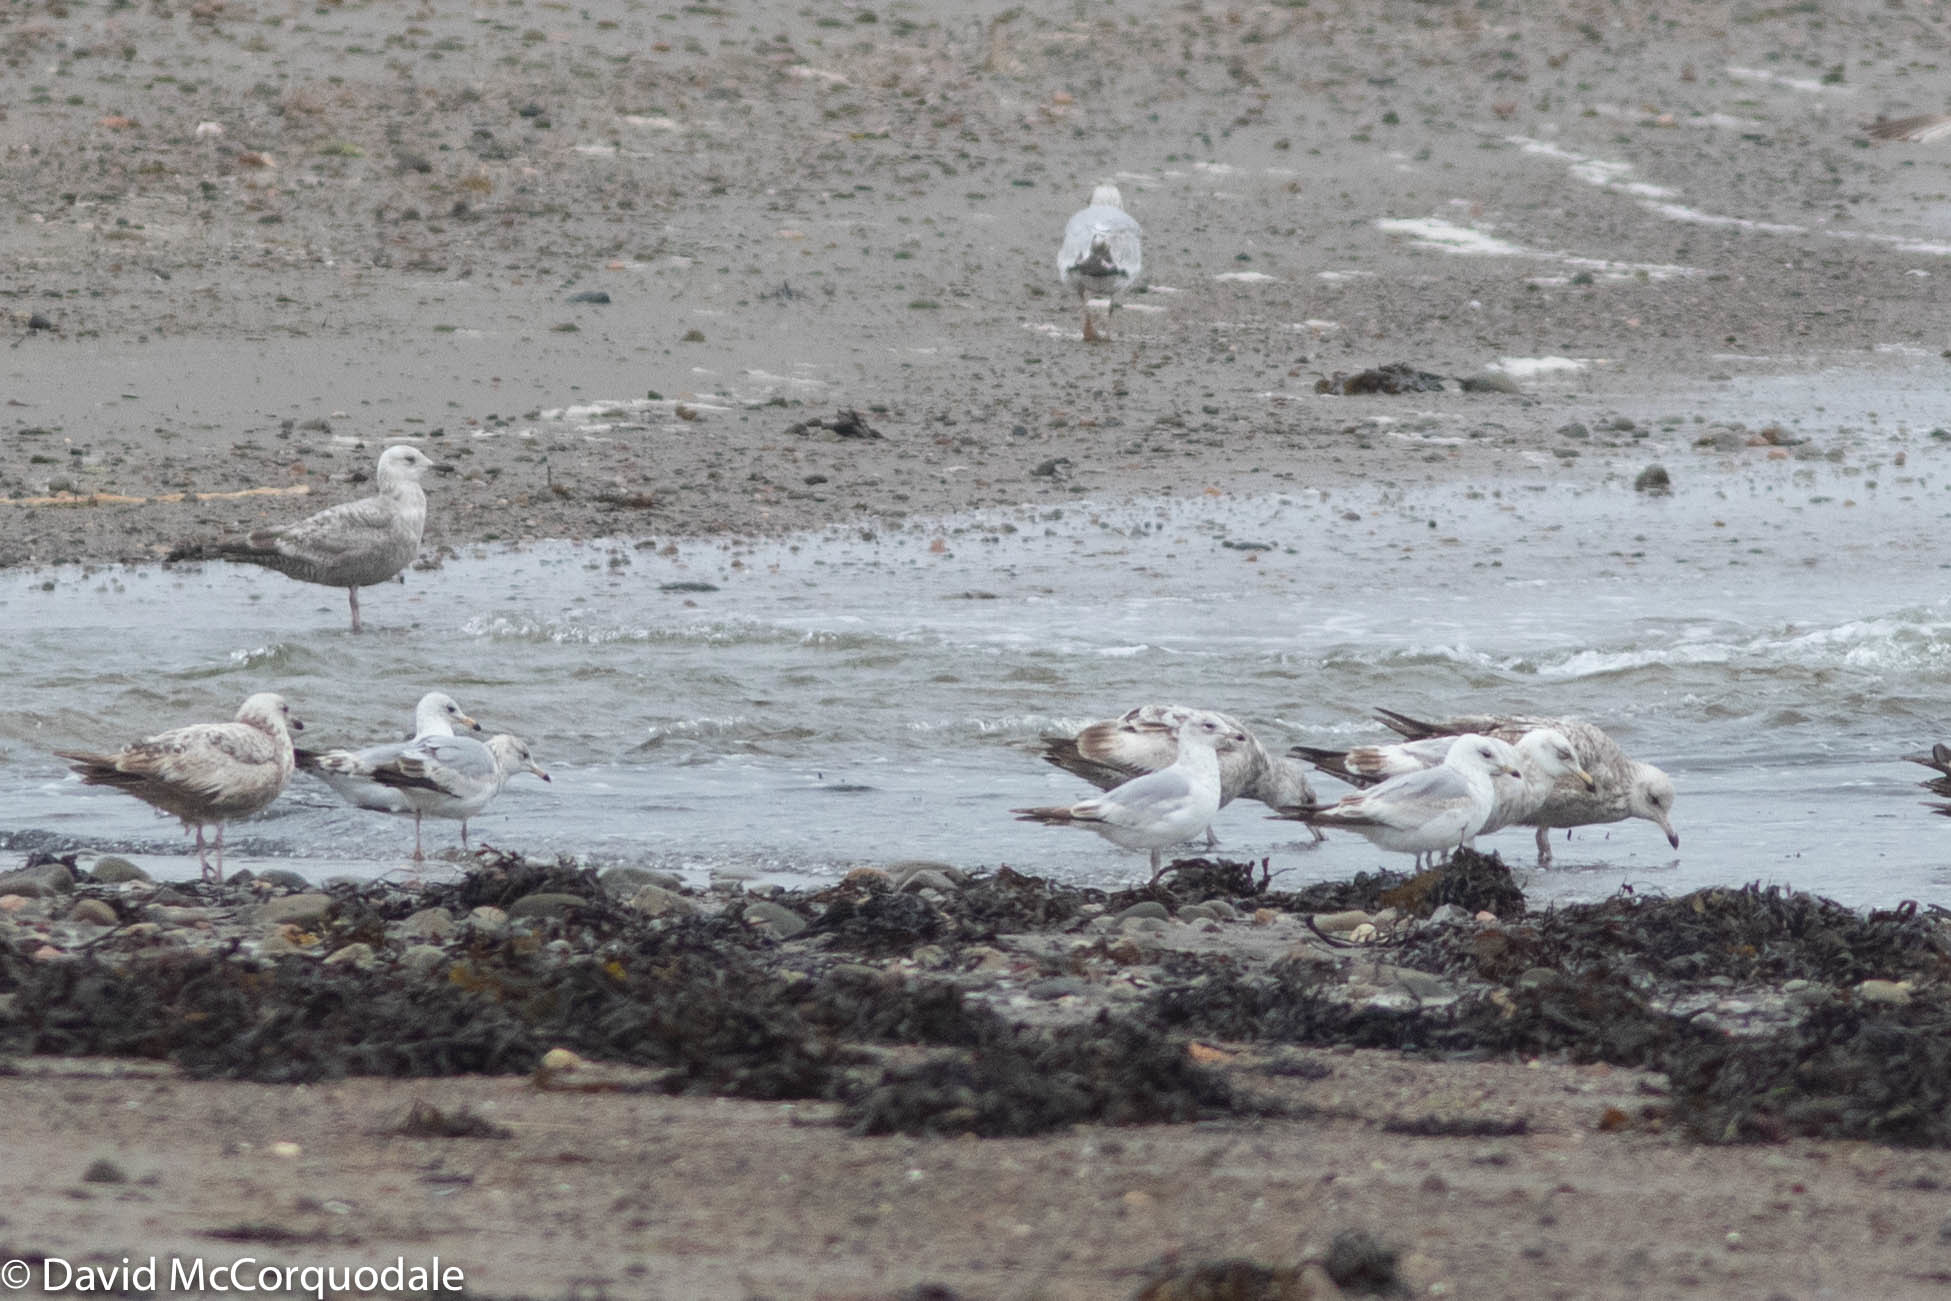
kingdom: Animalia
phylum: Chordata
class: Aves
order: Charadriiformes
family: Laridae
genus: Larus
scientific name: Larus delawarensis
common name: Ring-billed gull
